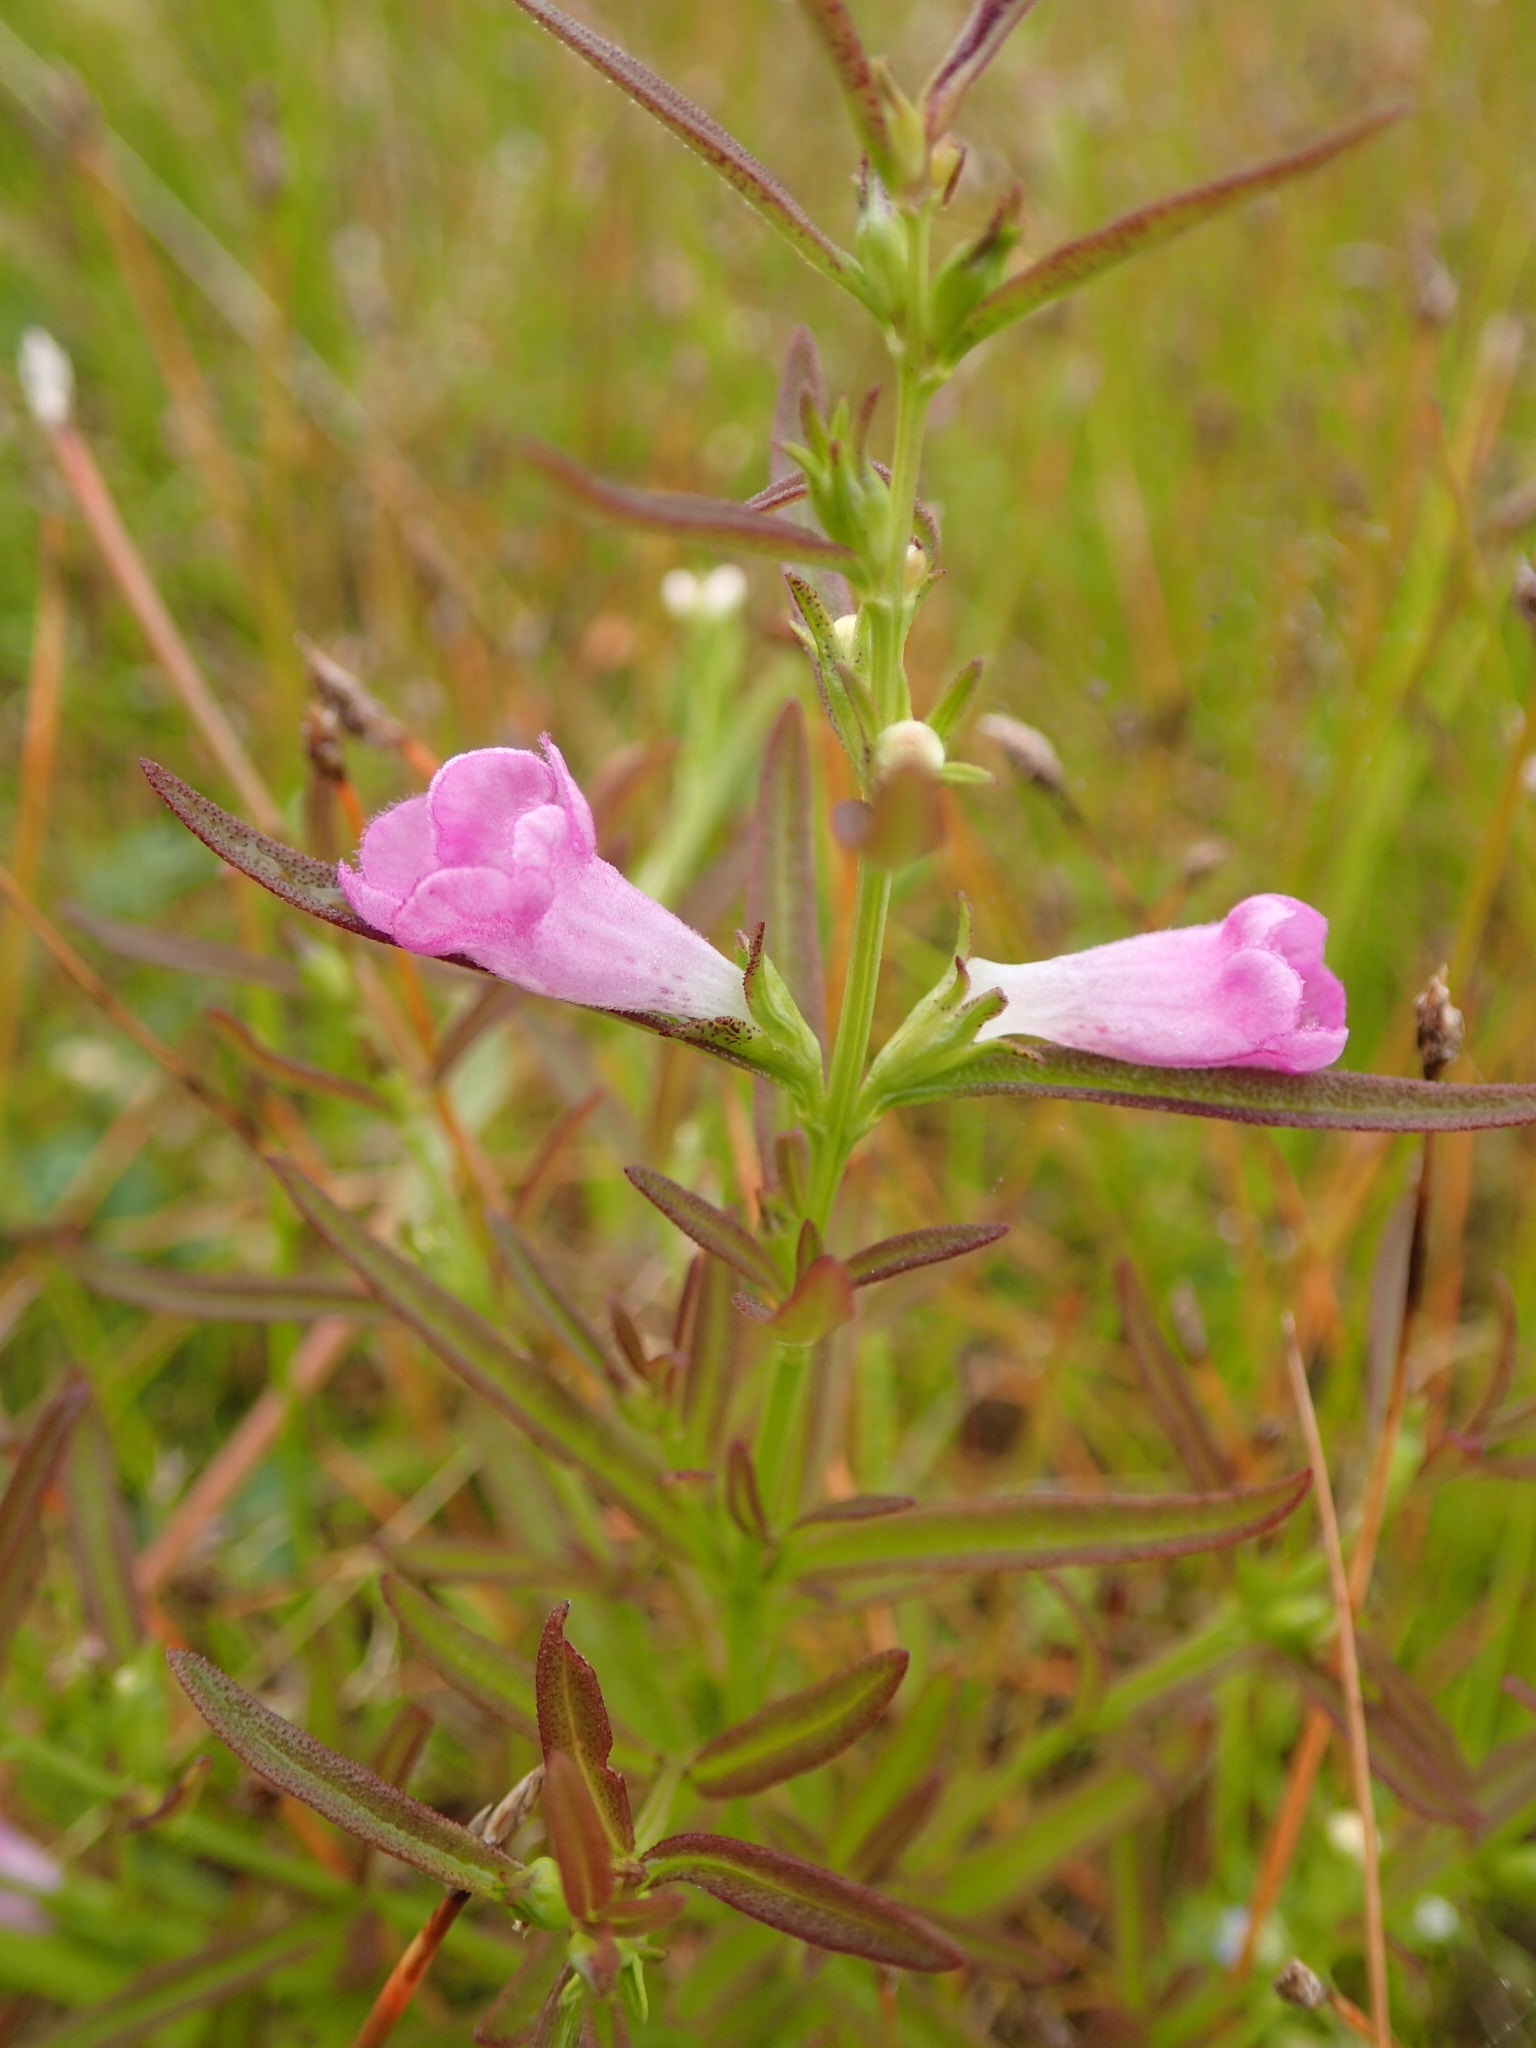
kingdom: Plantae
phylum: Tracheophyta
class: Magnoliopsida
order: Lamiales
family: Orobanchaceae
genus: Agalinis
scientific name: Agalinis neoscotica
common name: Middleton false foxglove
